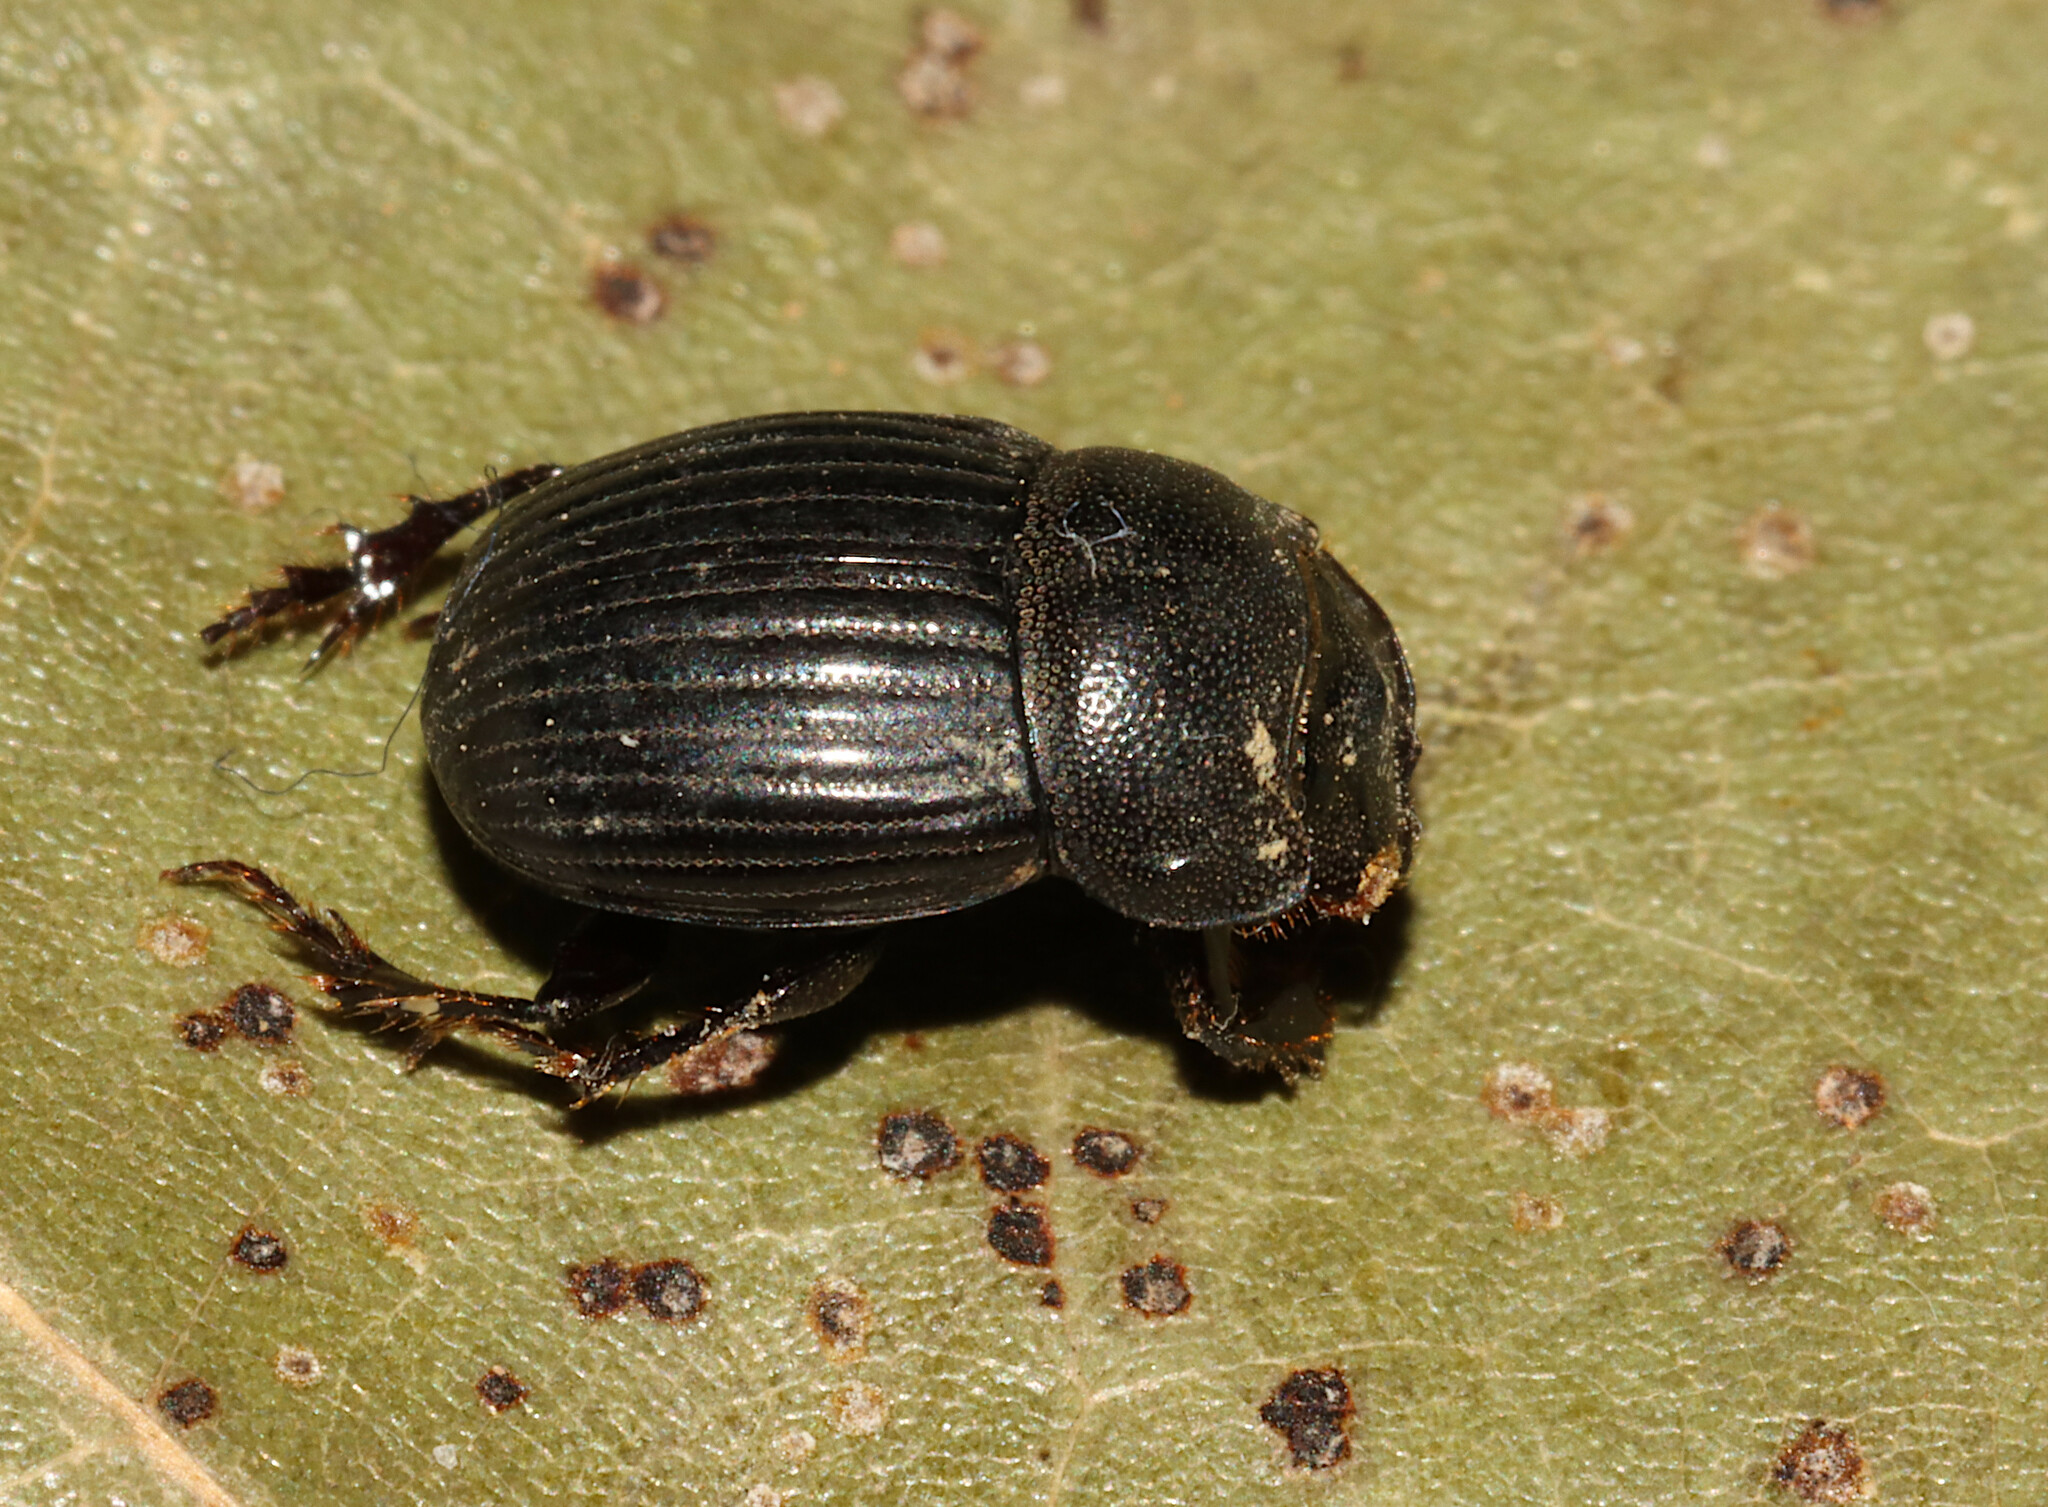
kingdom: Animalia
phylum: Arthropoda
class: Insecta
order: Coleoptera
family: Scarabaeidae
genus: Copris
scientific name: Copris minutus
